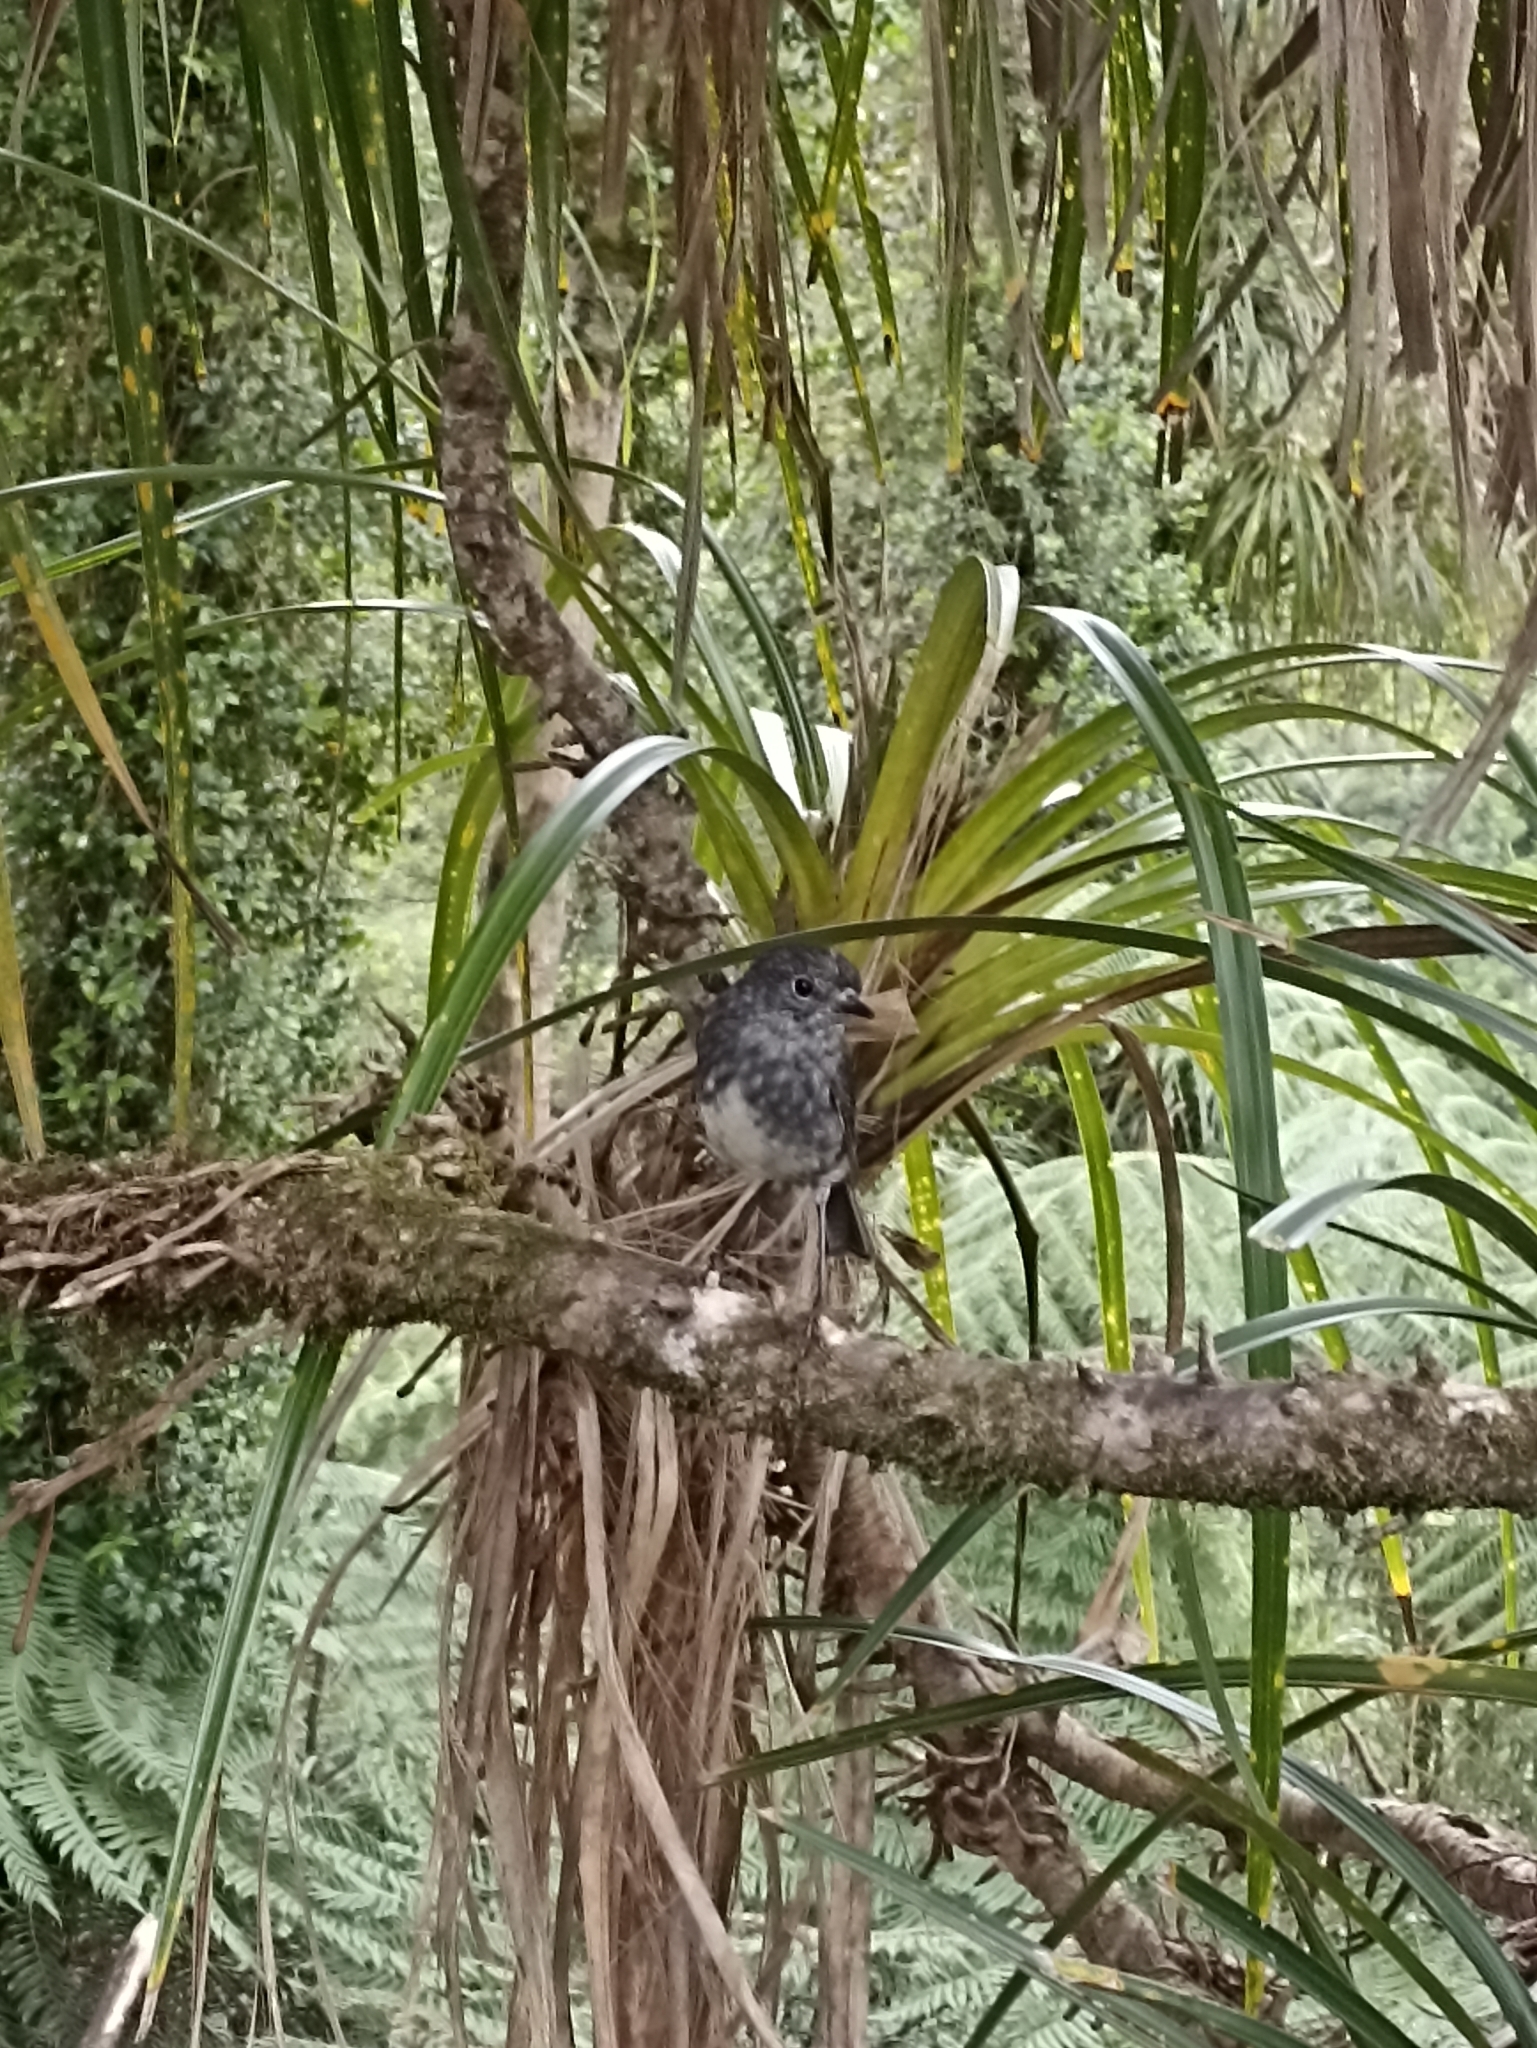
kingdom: Animalia
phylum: Chordata
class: Aves
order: Passeriformes
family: Petroicidae
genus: Petroica
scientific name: Petroica australis
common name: New zealand robin
